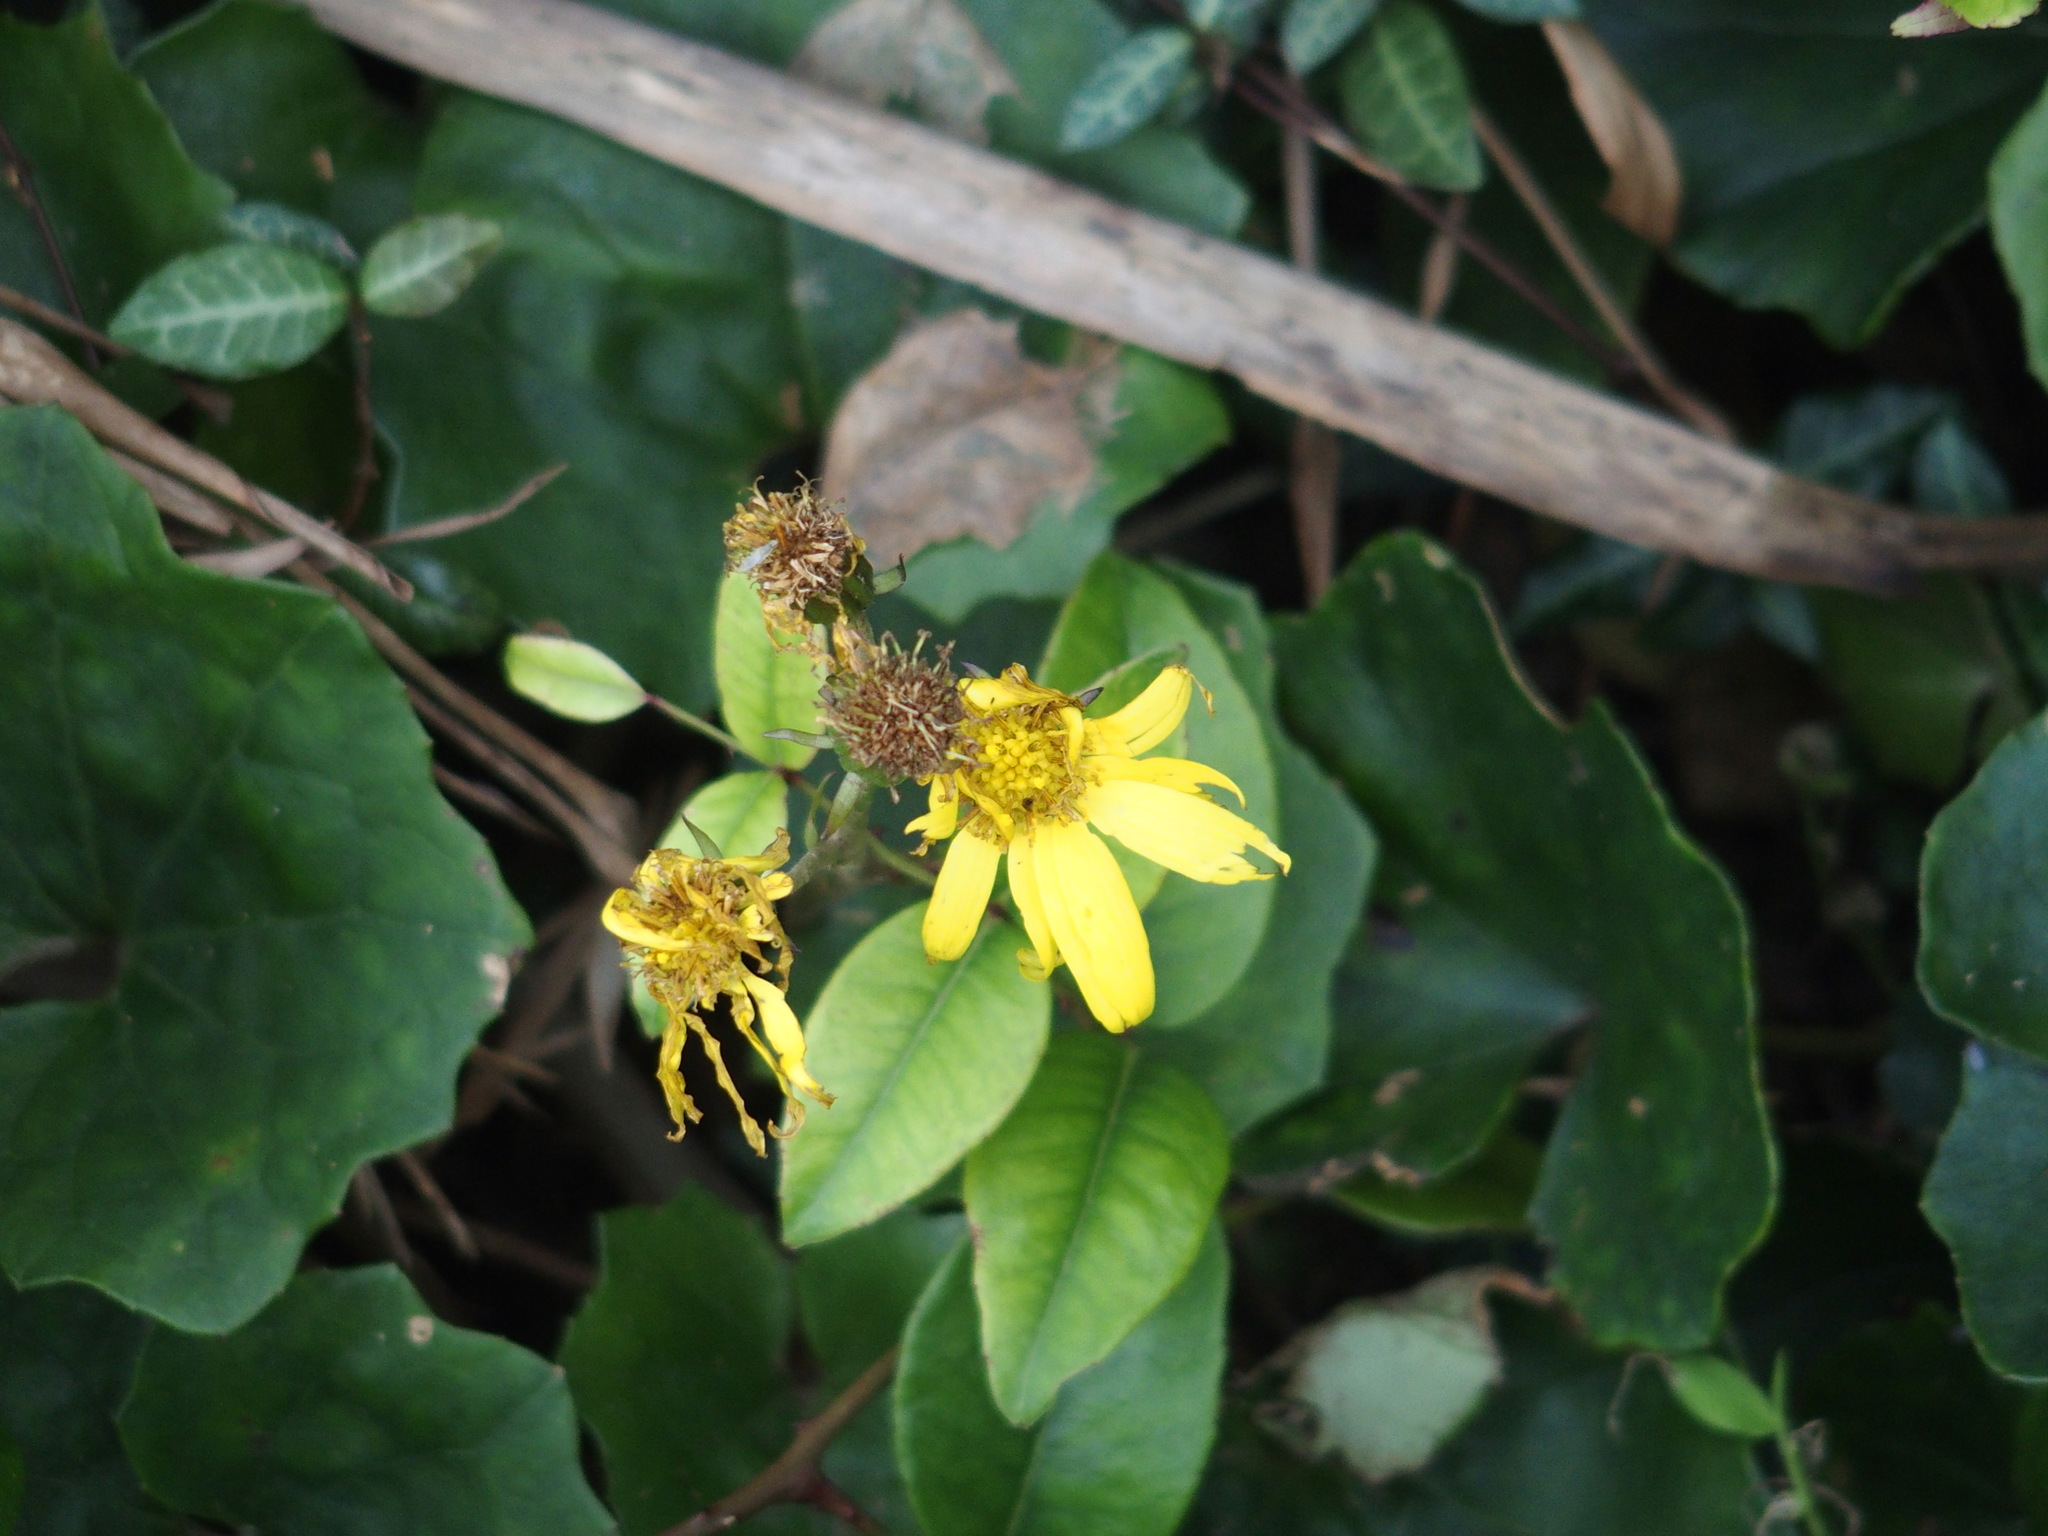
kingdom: Plantae
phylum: Tracheophyta
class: Magnoliopsida
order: Asterales
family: Asteraceae
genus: Farfugium
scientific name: Farfugium japonicum
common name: Leopardplant
